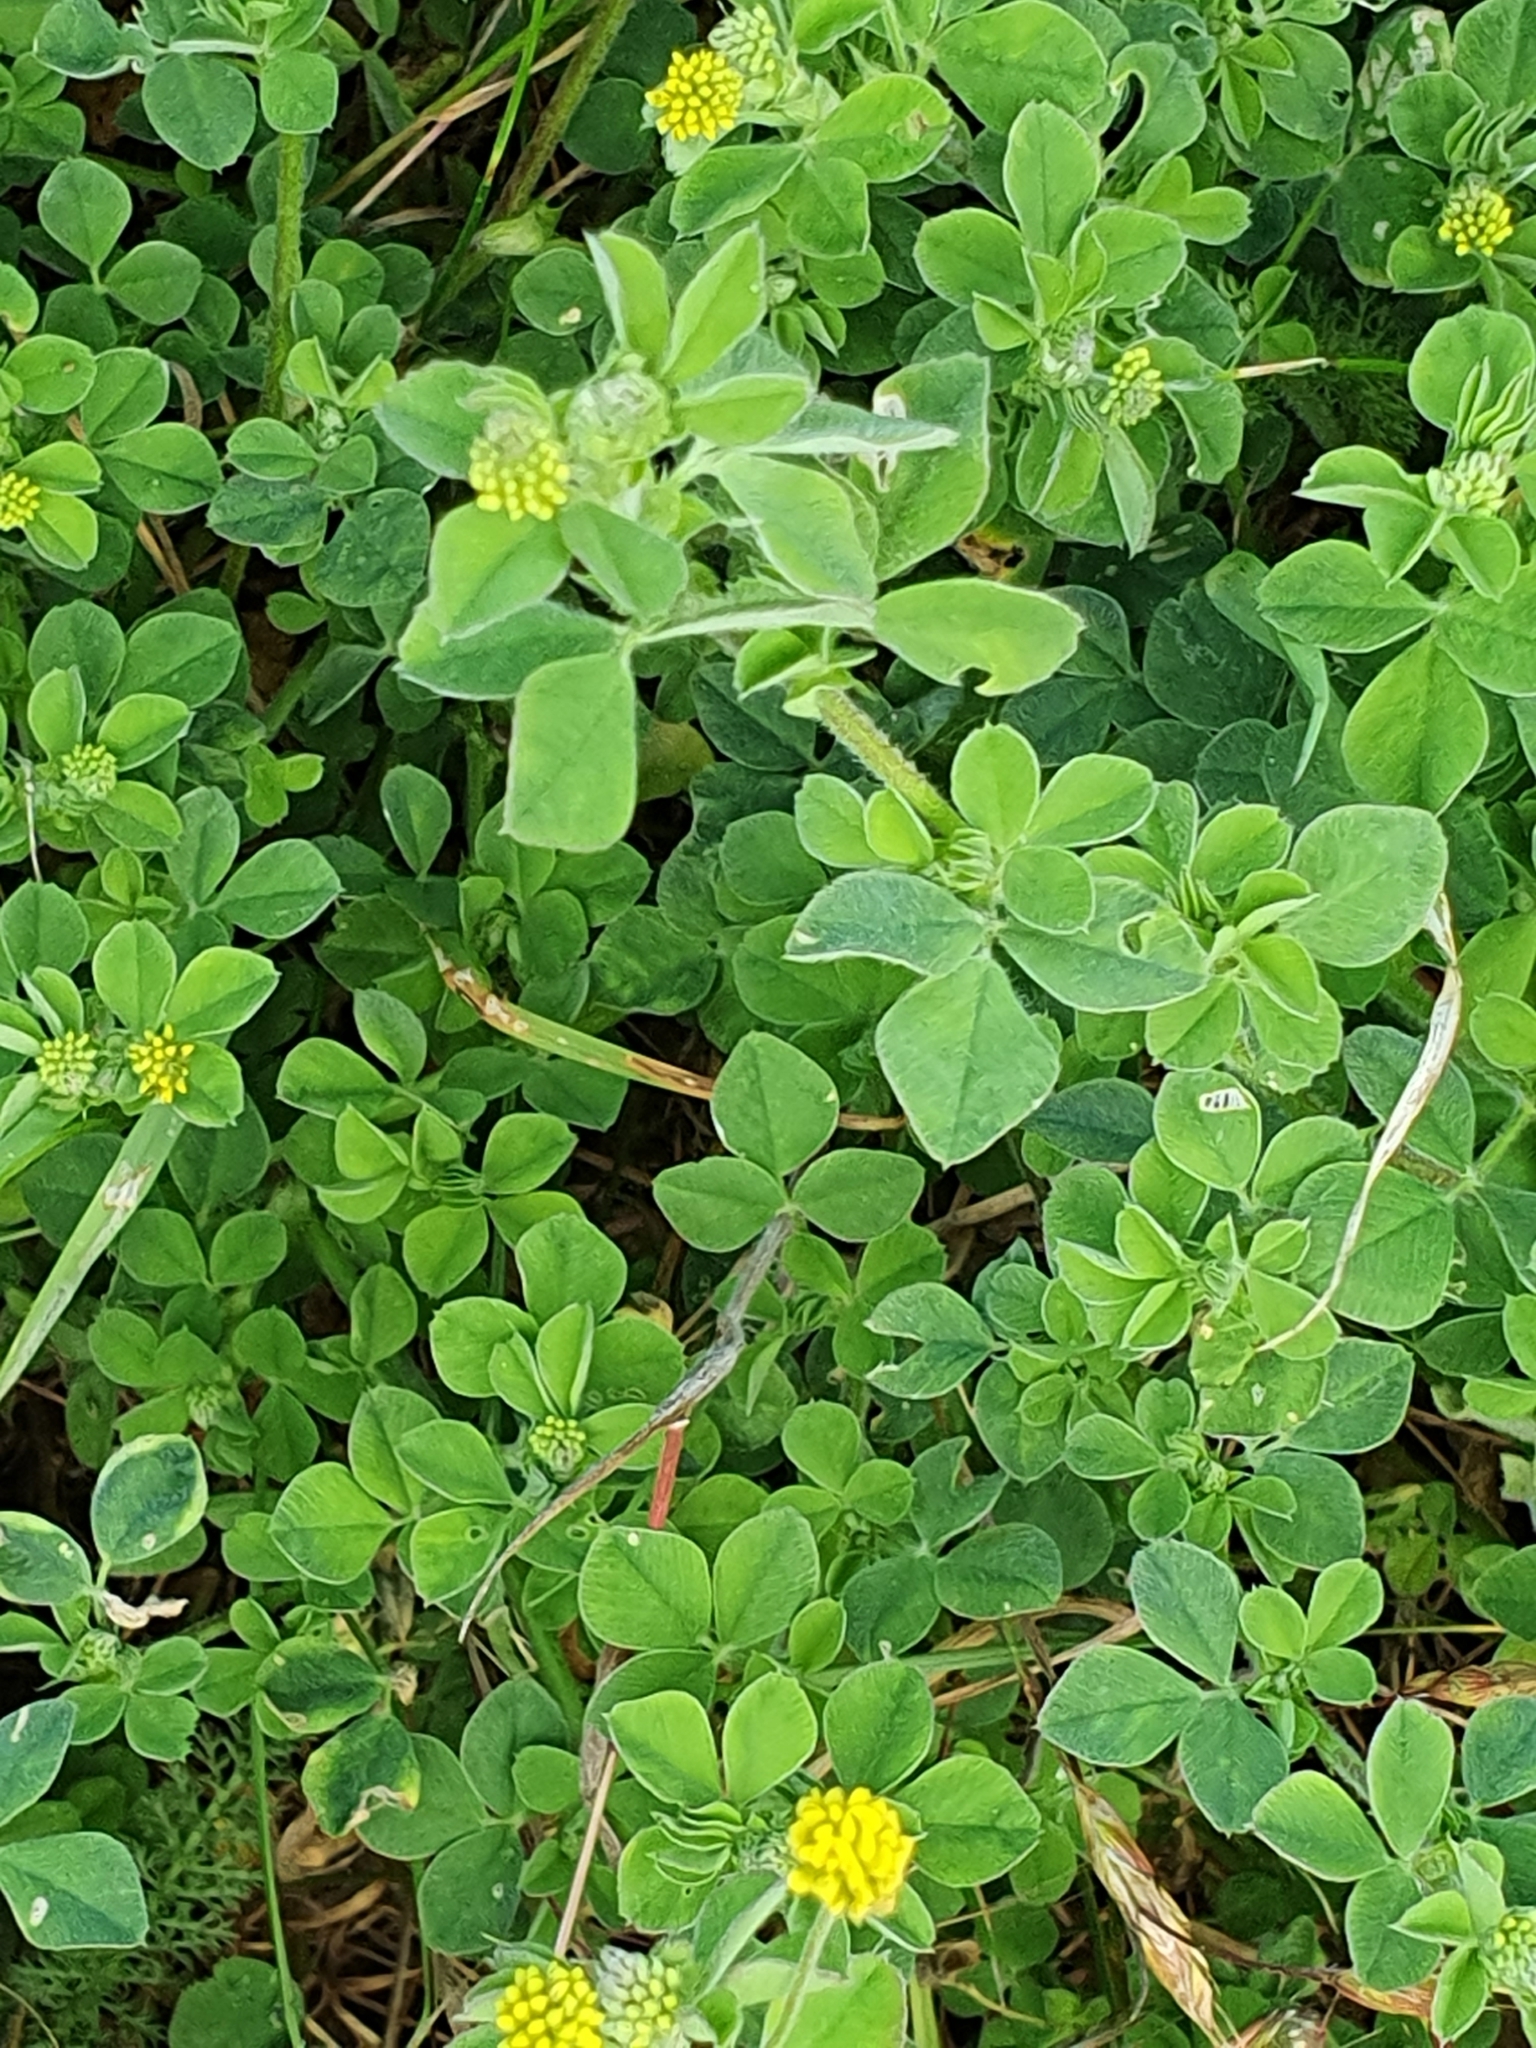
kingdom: Plantae
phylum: Tracheophyta
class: Magnoliopsida
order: Fabales
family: Fabaceae
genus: Medicago
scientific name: Medicago lupulina
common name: Black medick
